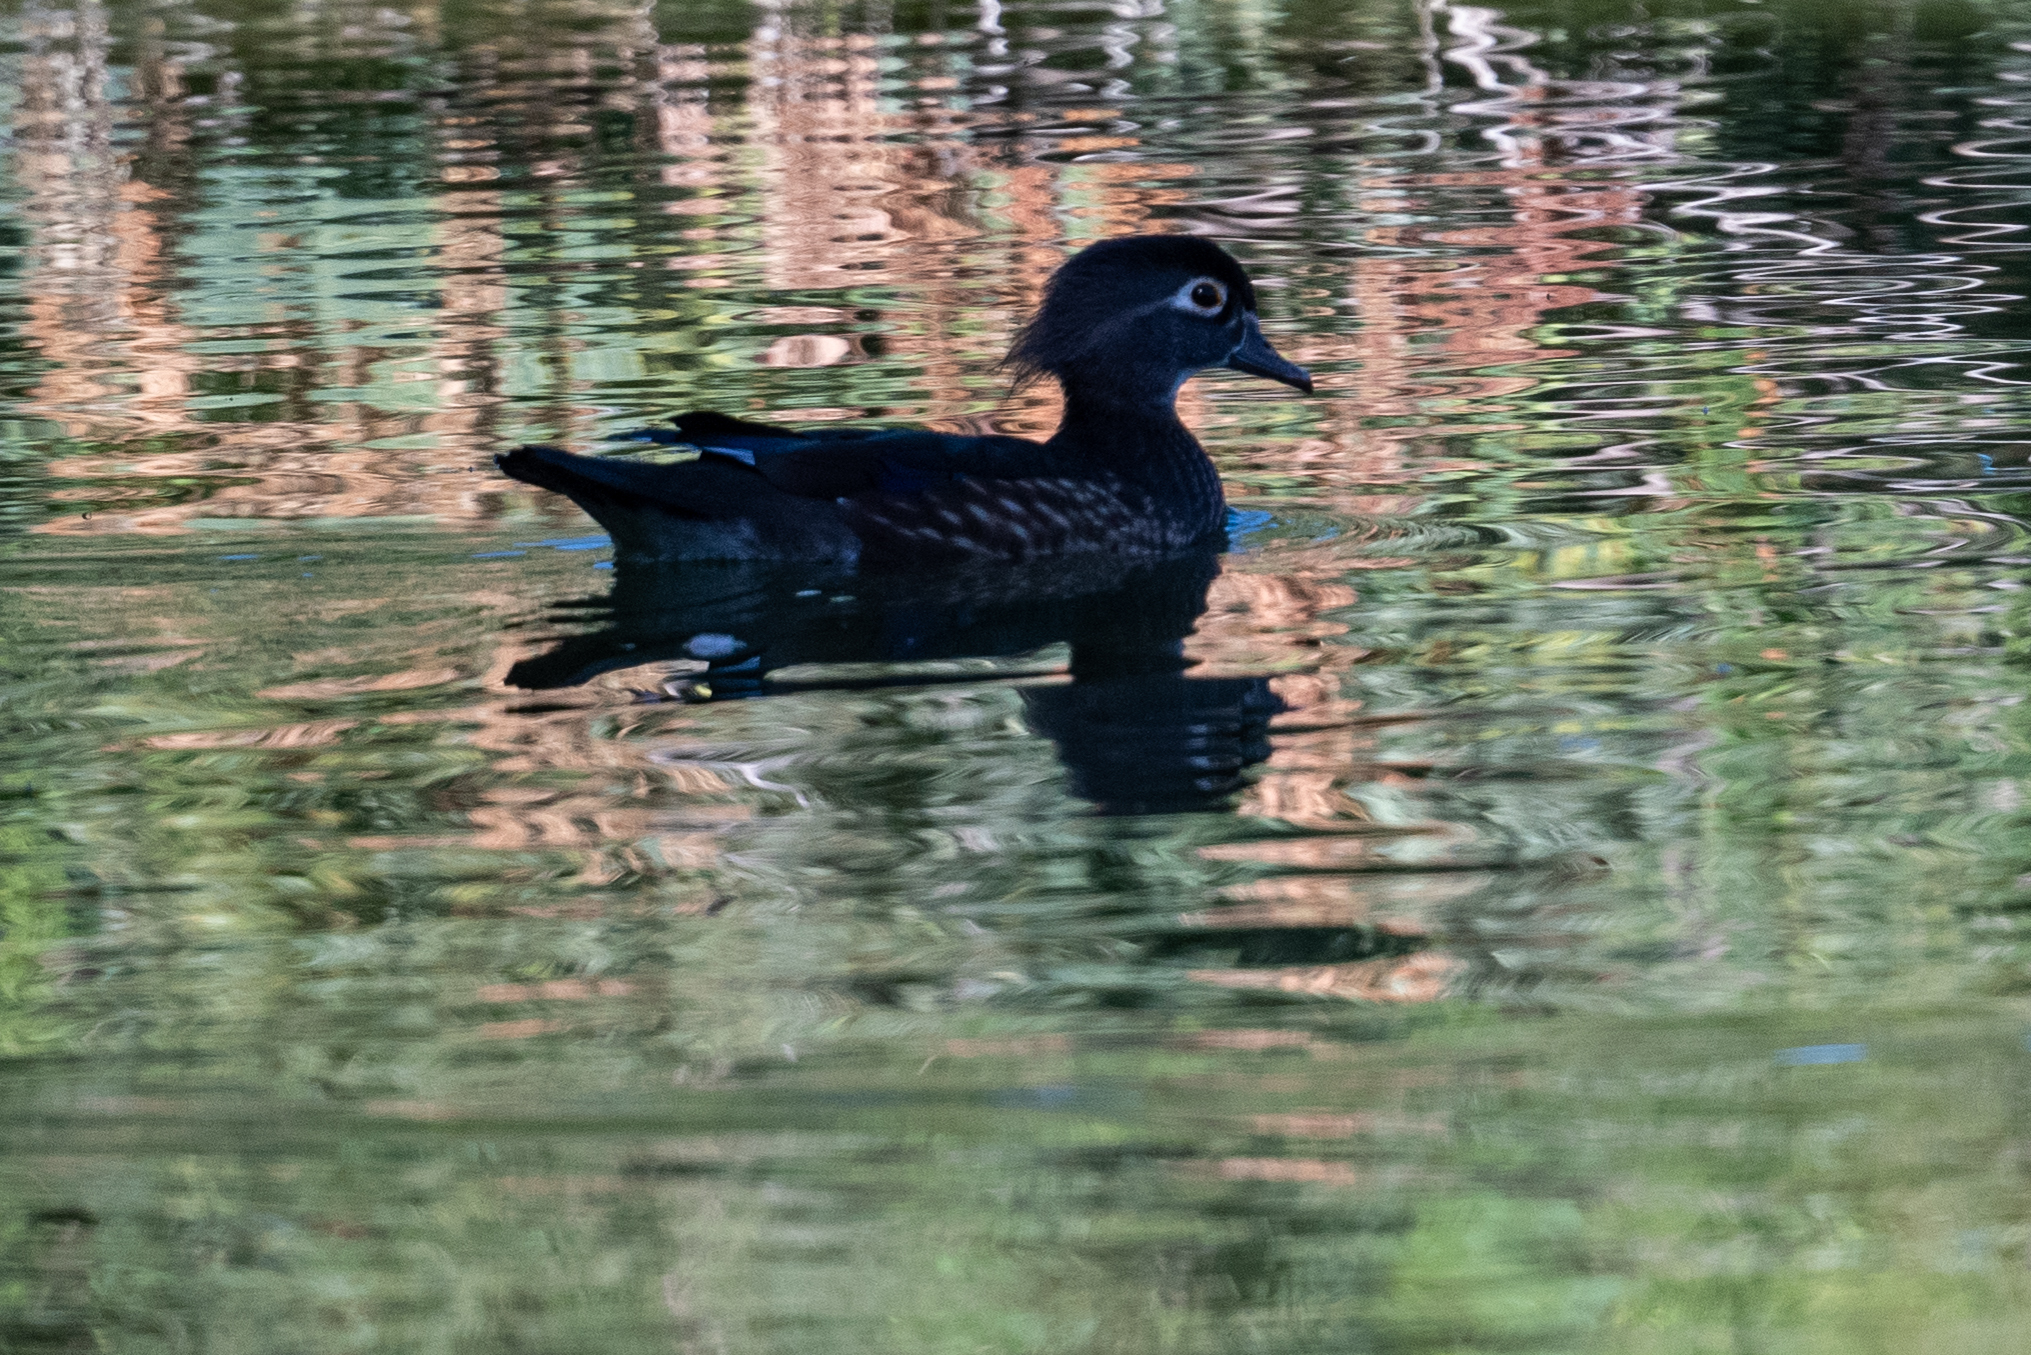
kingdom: Animalia
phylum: Chordata
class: Aves
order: Anseriformes
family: Anatidae
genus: Aix
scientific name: Aix sponsa
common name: Wood duck
